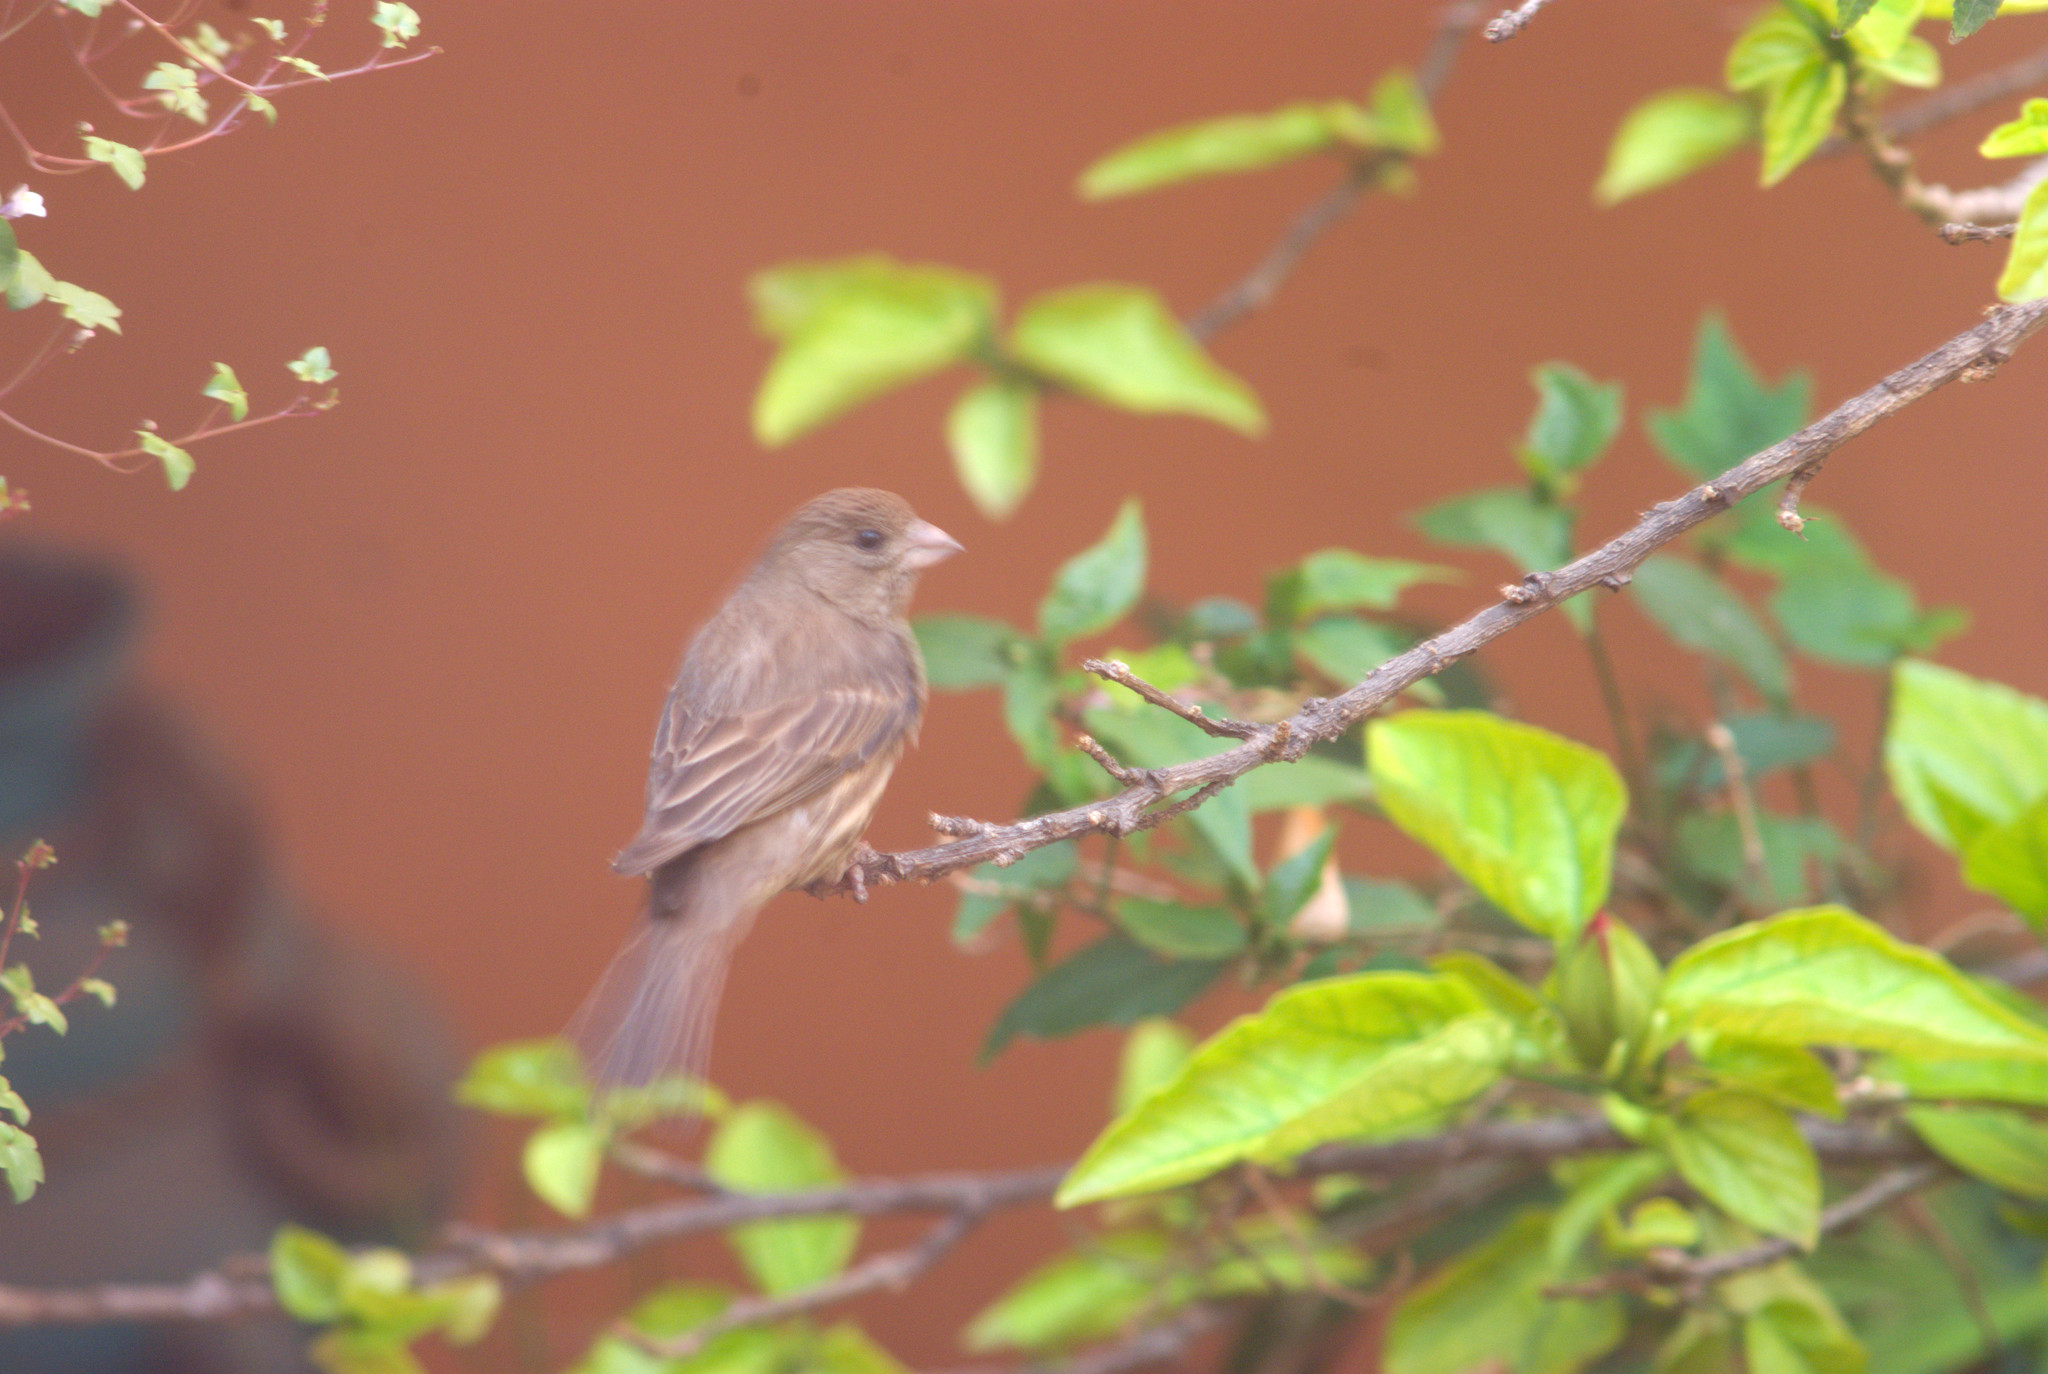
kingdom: Animalia
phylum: Chordata
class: Aves
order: Passeriformes
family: Fringillidae
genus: Haemorhous
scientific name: Haemorhous mexicanus
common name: House finch
